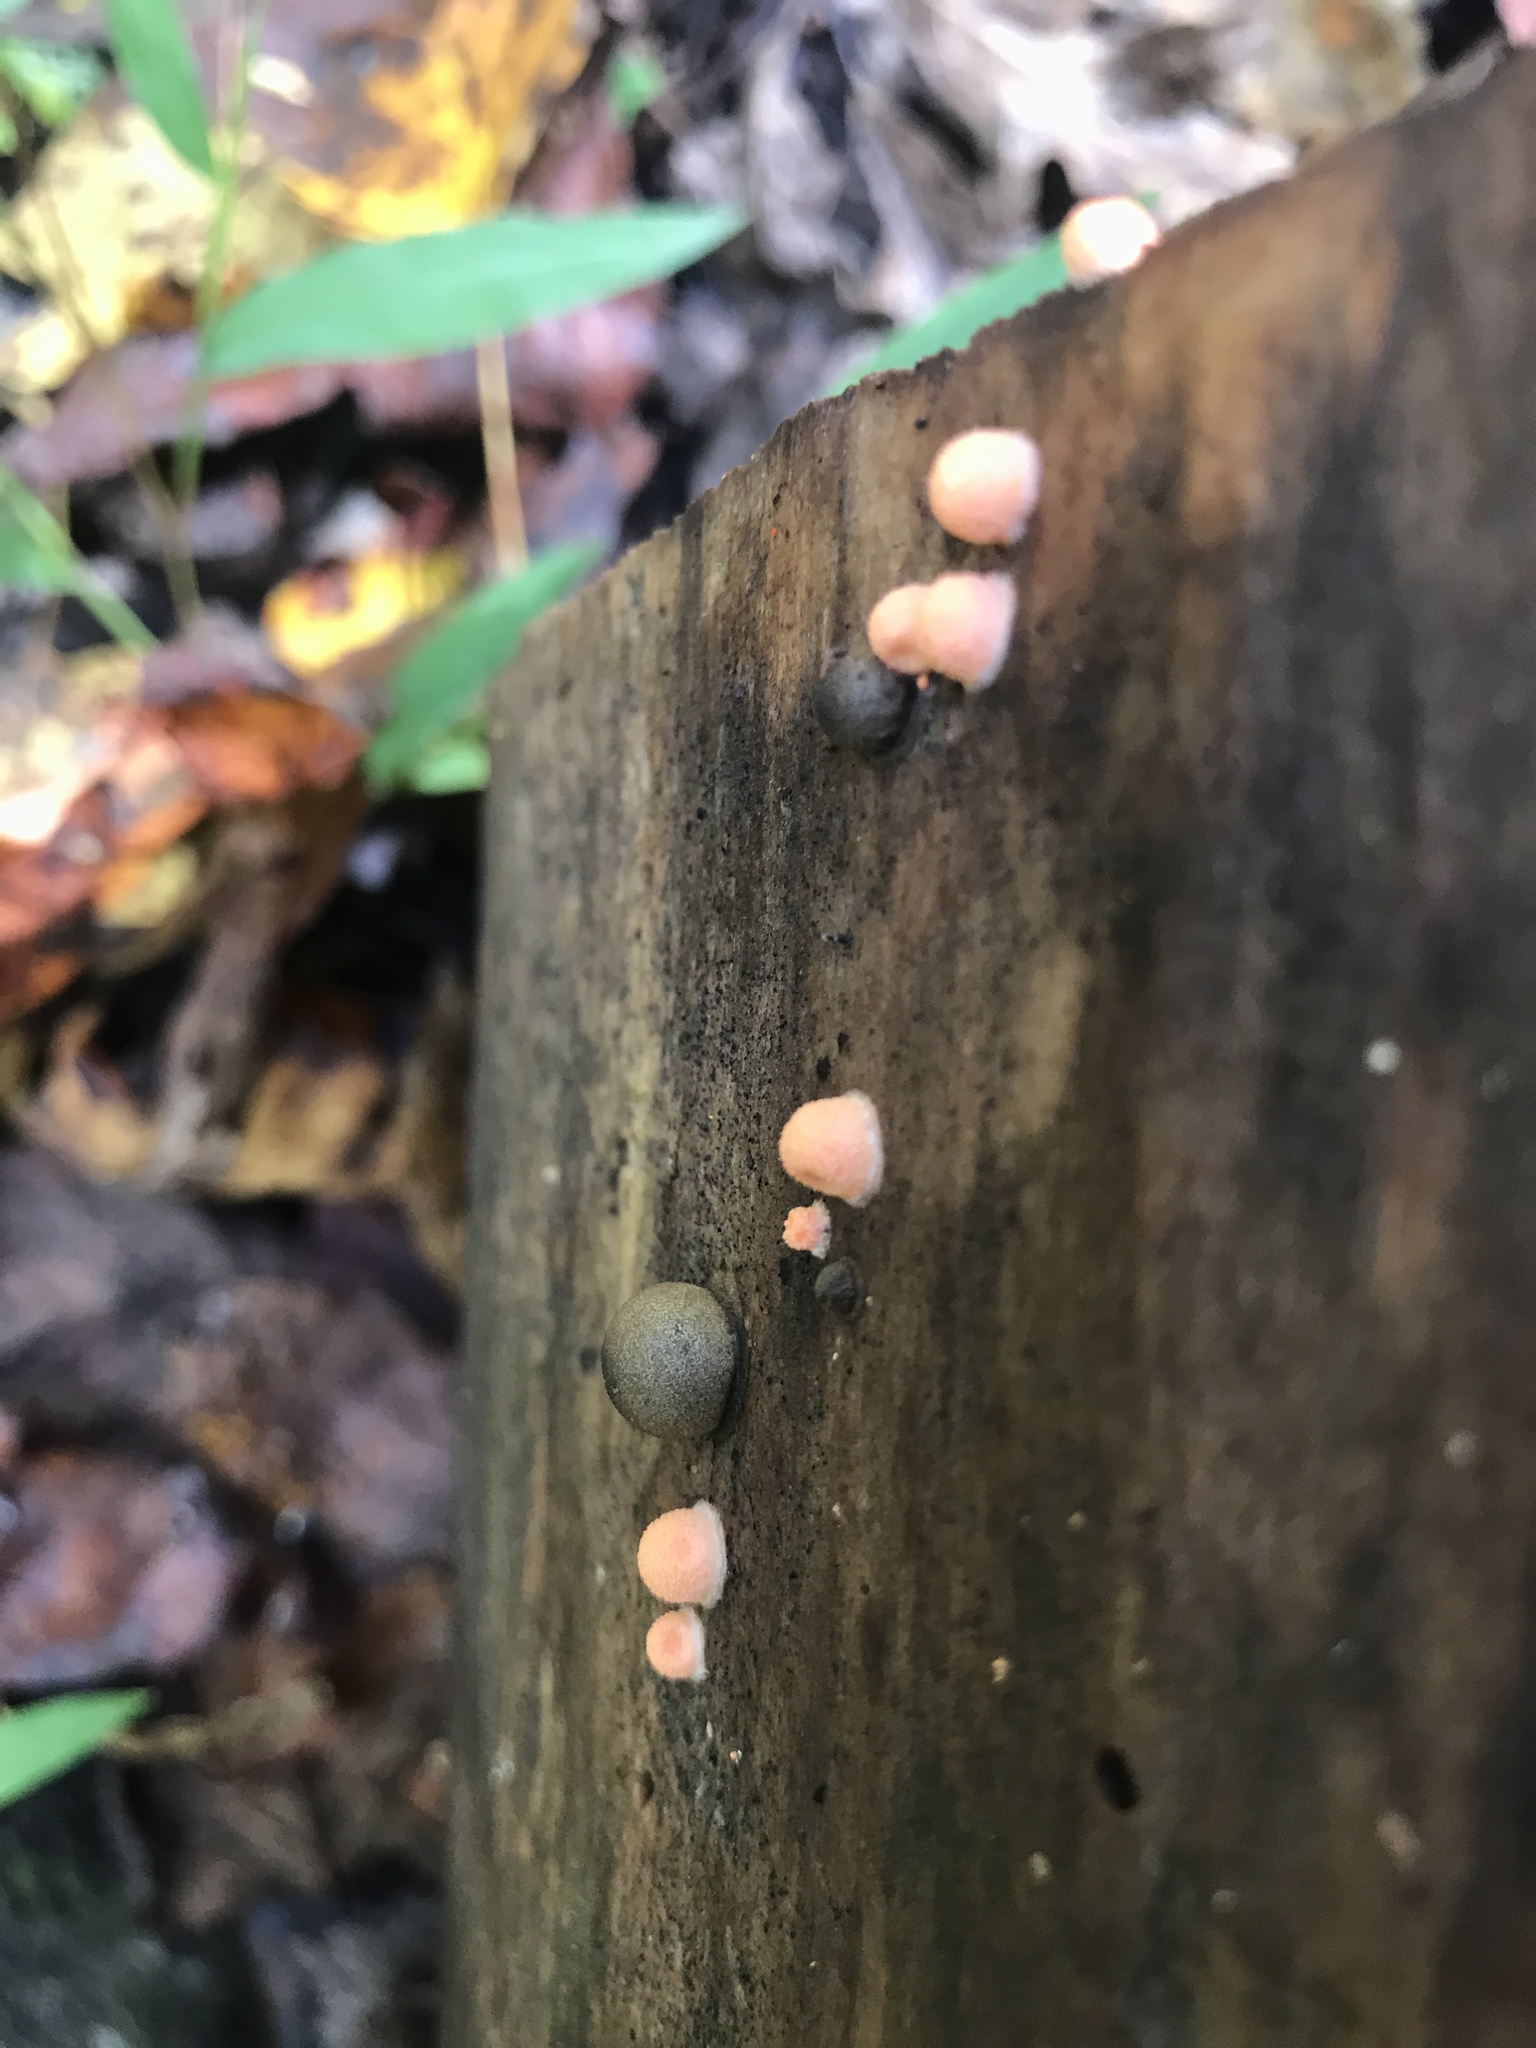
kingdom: Protozoa
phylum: Mycetozoa
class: Myxomycetes
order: Cribrariales
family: Tubiferaceae
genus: Lycogala
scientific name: Lycogala epidendrum
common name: Wolf's milk
